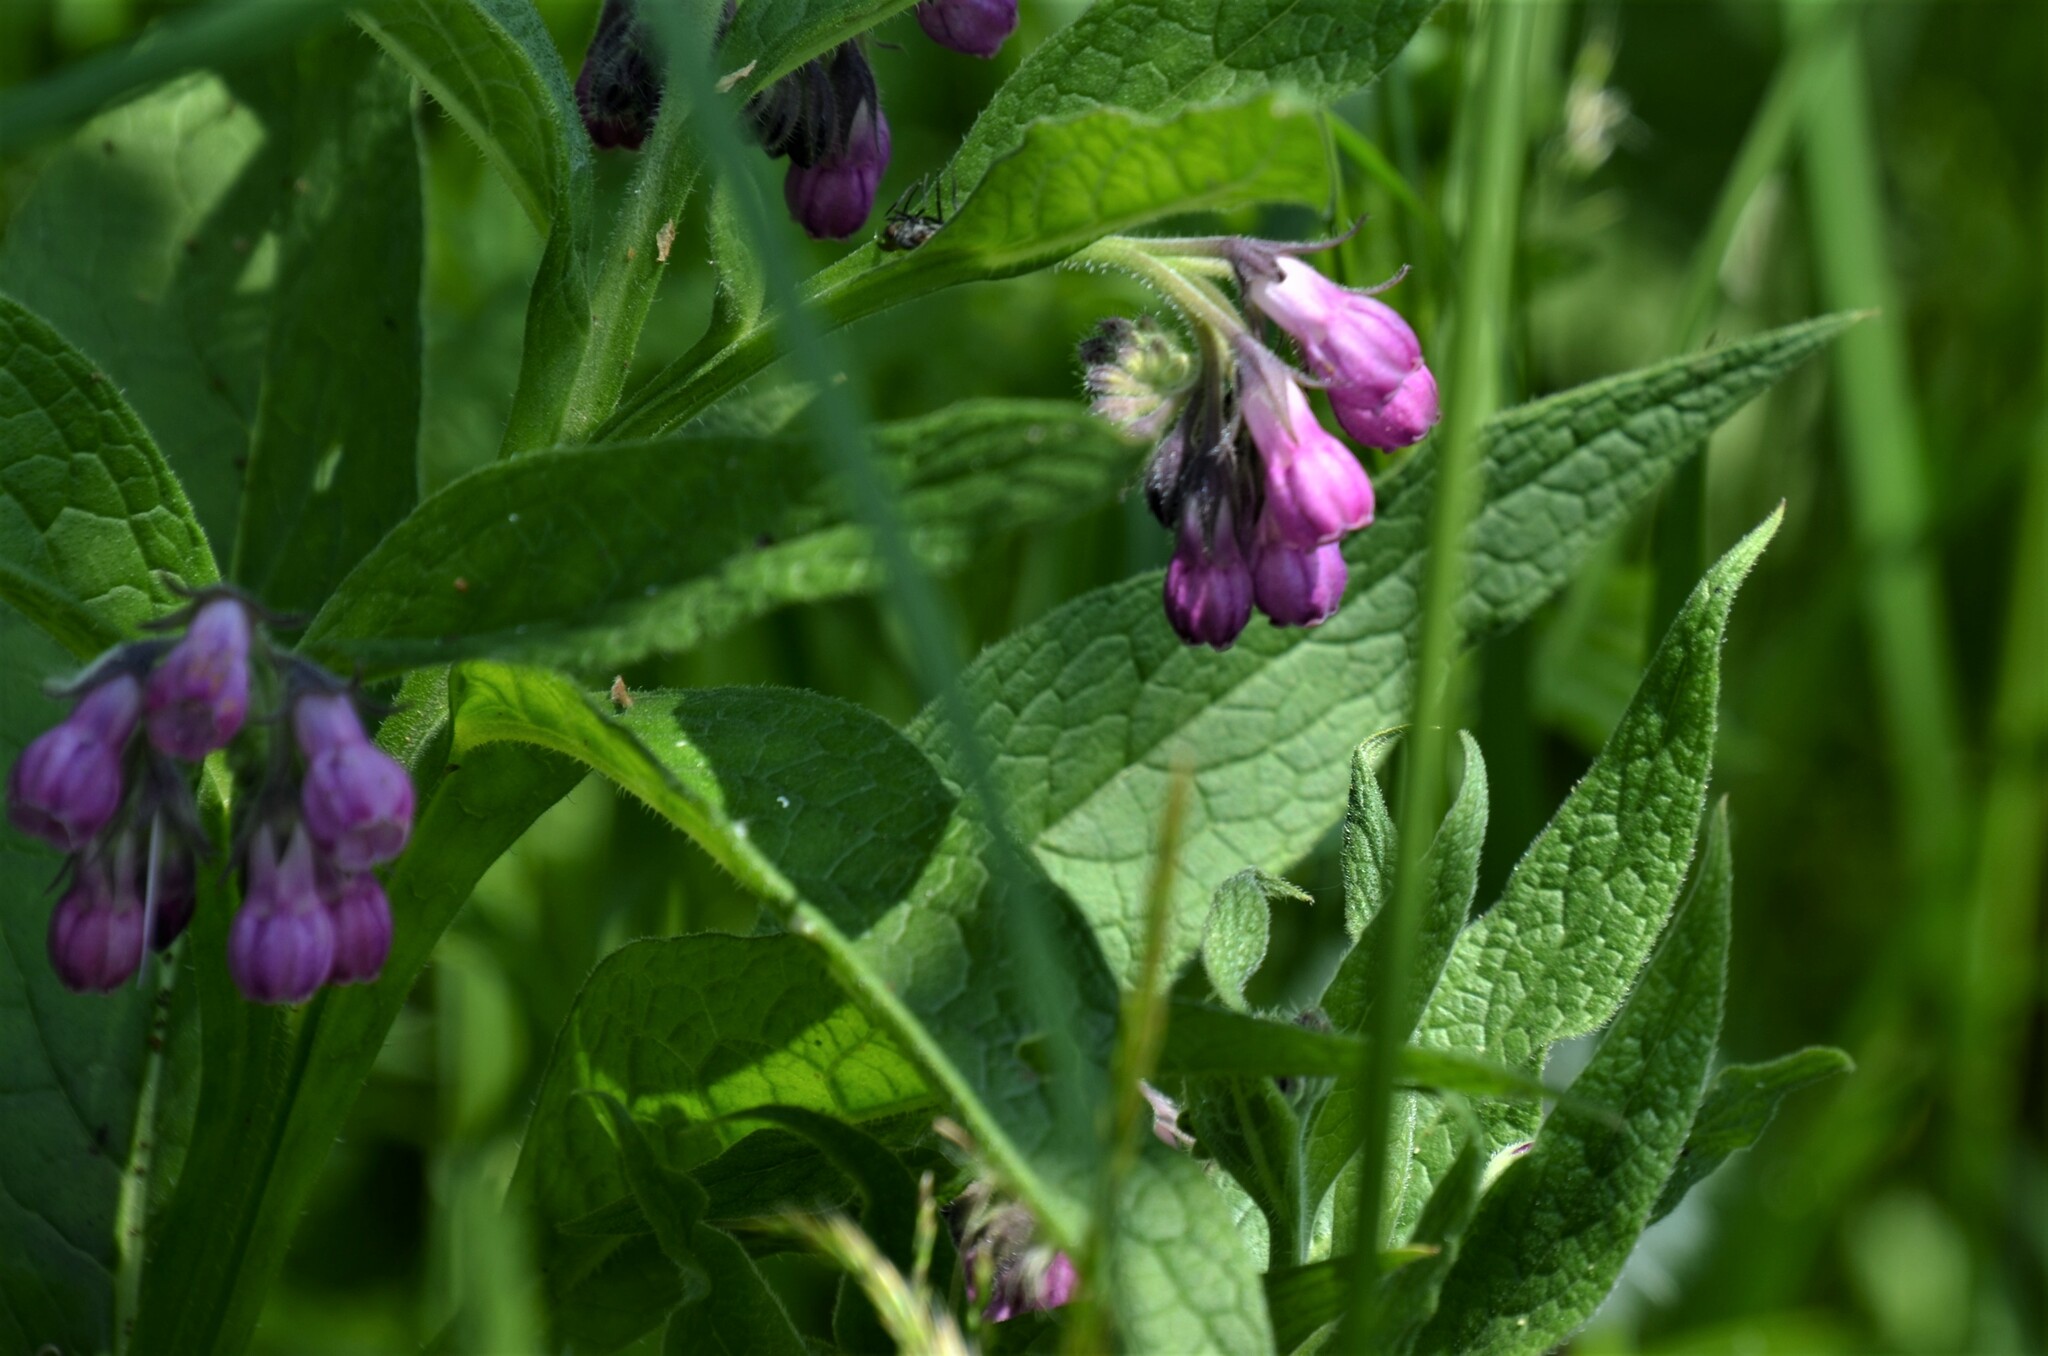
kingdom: Plantae
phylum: Tracheophyta
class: Magnoliopsida
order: Boraginales
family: Boraginaceae
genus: Symphytum
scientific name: Symphytum officinale
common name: Common comfrey
